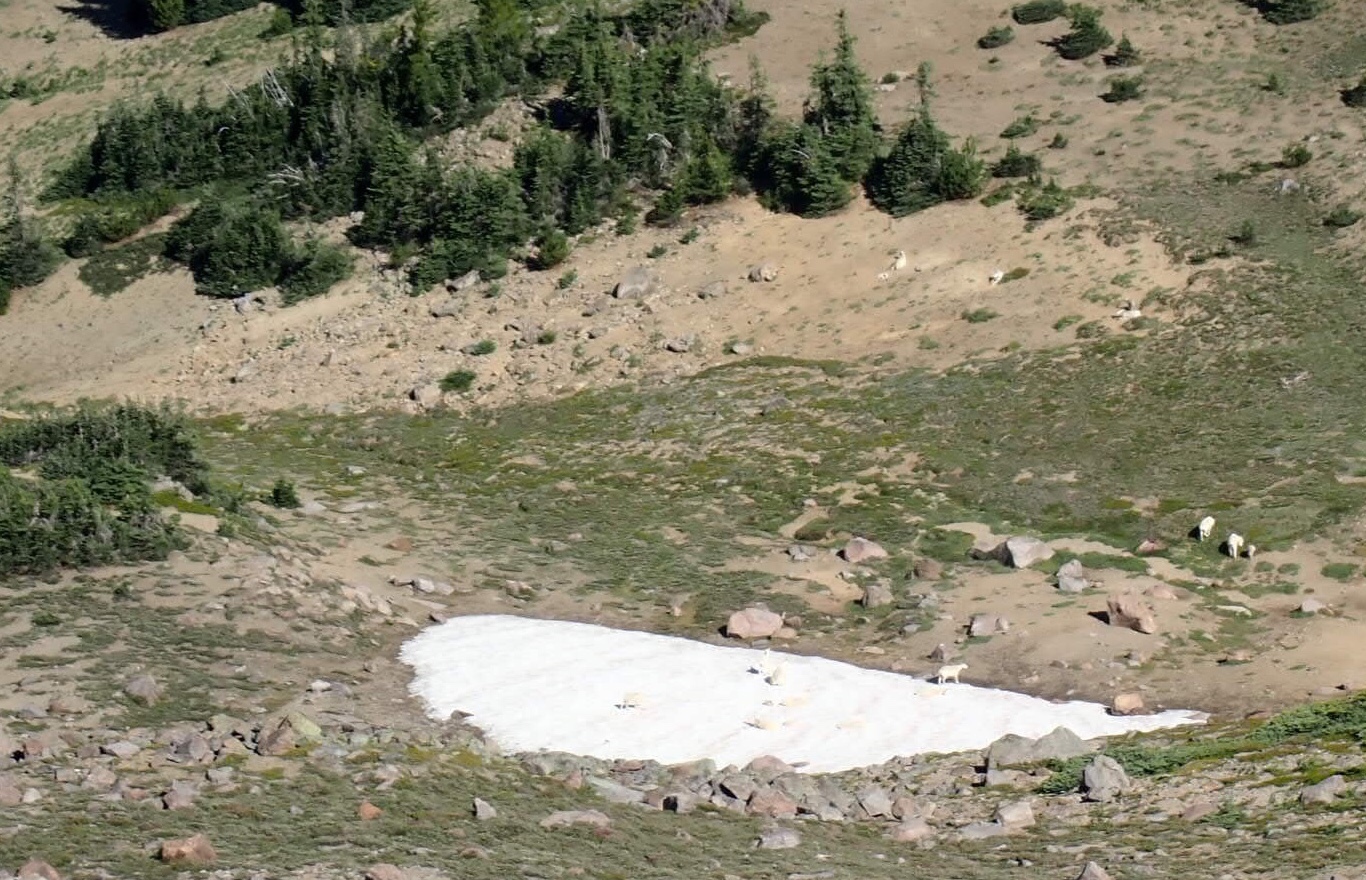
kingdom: Animalia
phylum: Chordata
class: Mammalia
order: Artiodactyla
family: Bovidae
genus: Oreamnos
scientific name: Oreamnos americanus
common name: Mountain goat
